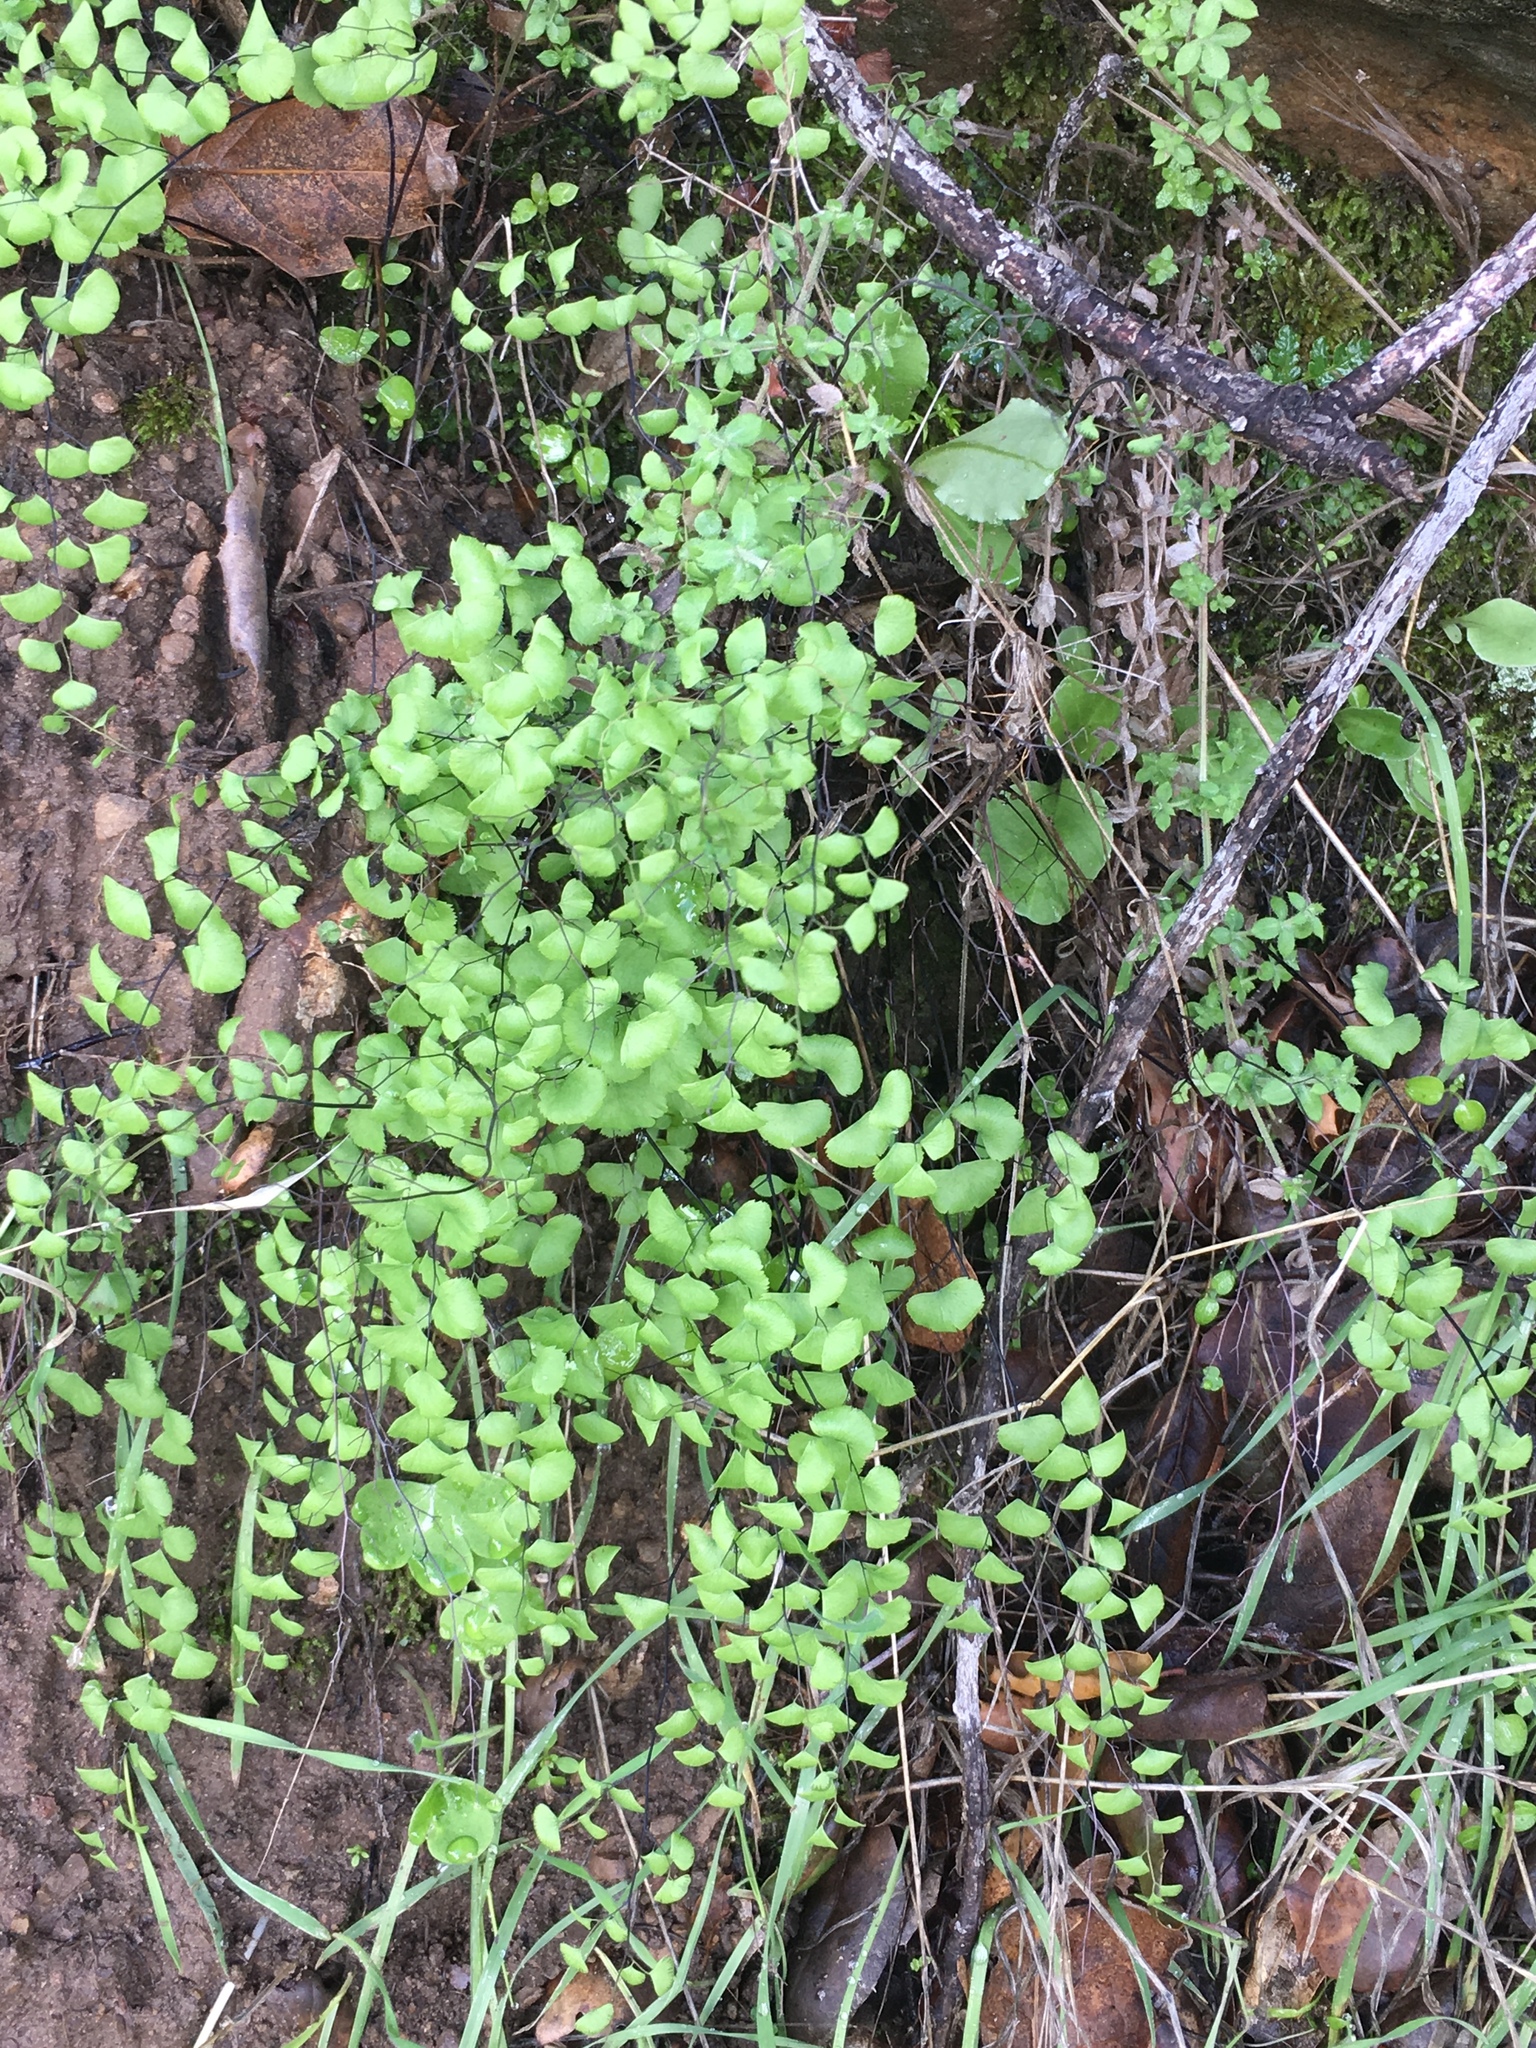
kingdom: Plantae
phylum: Tracheophyta
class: Polypodiopsida
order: Polypodiales
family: Pteridaceae
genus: Adiantum
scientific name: Adiantum jordanii
